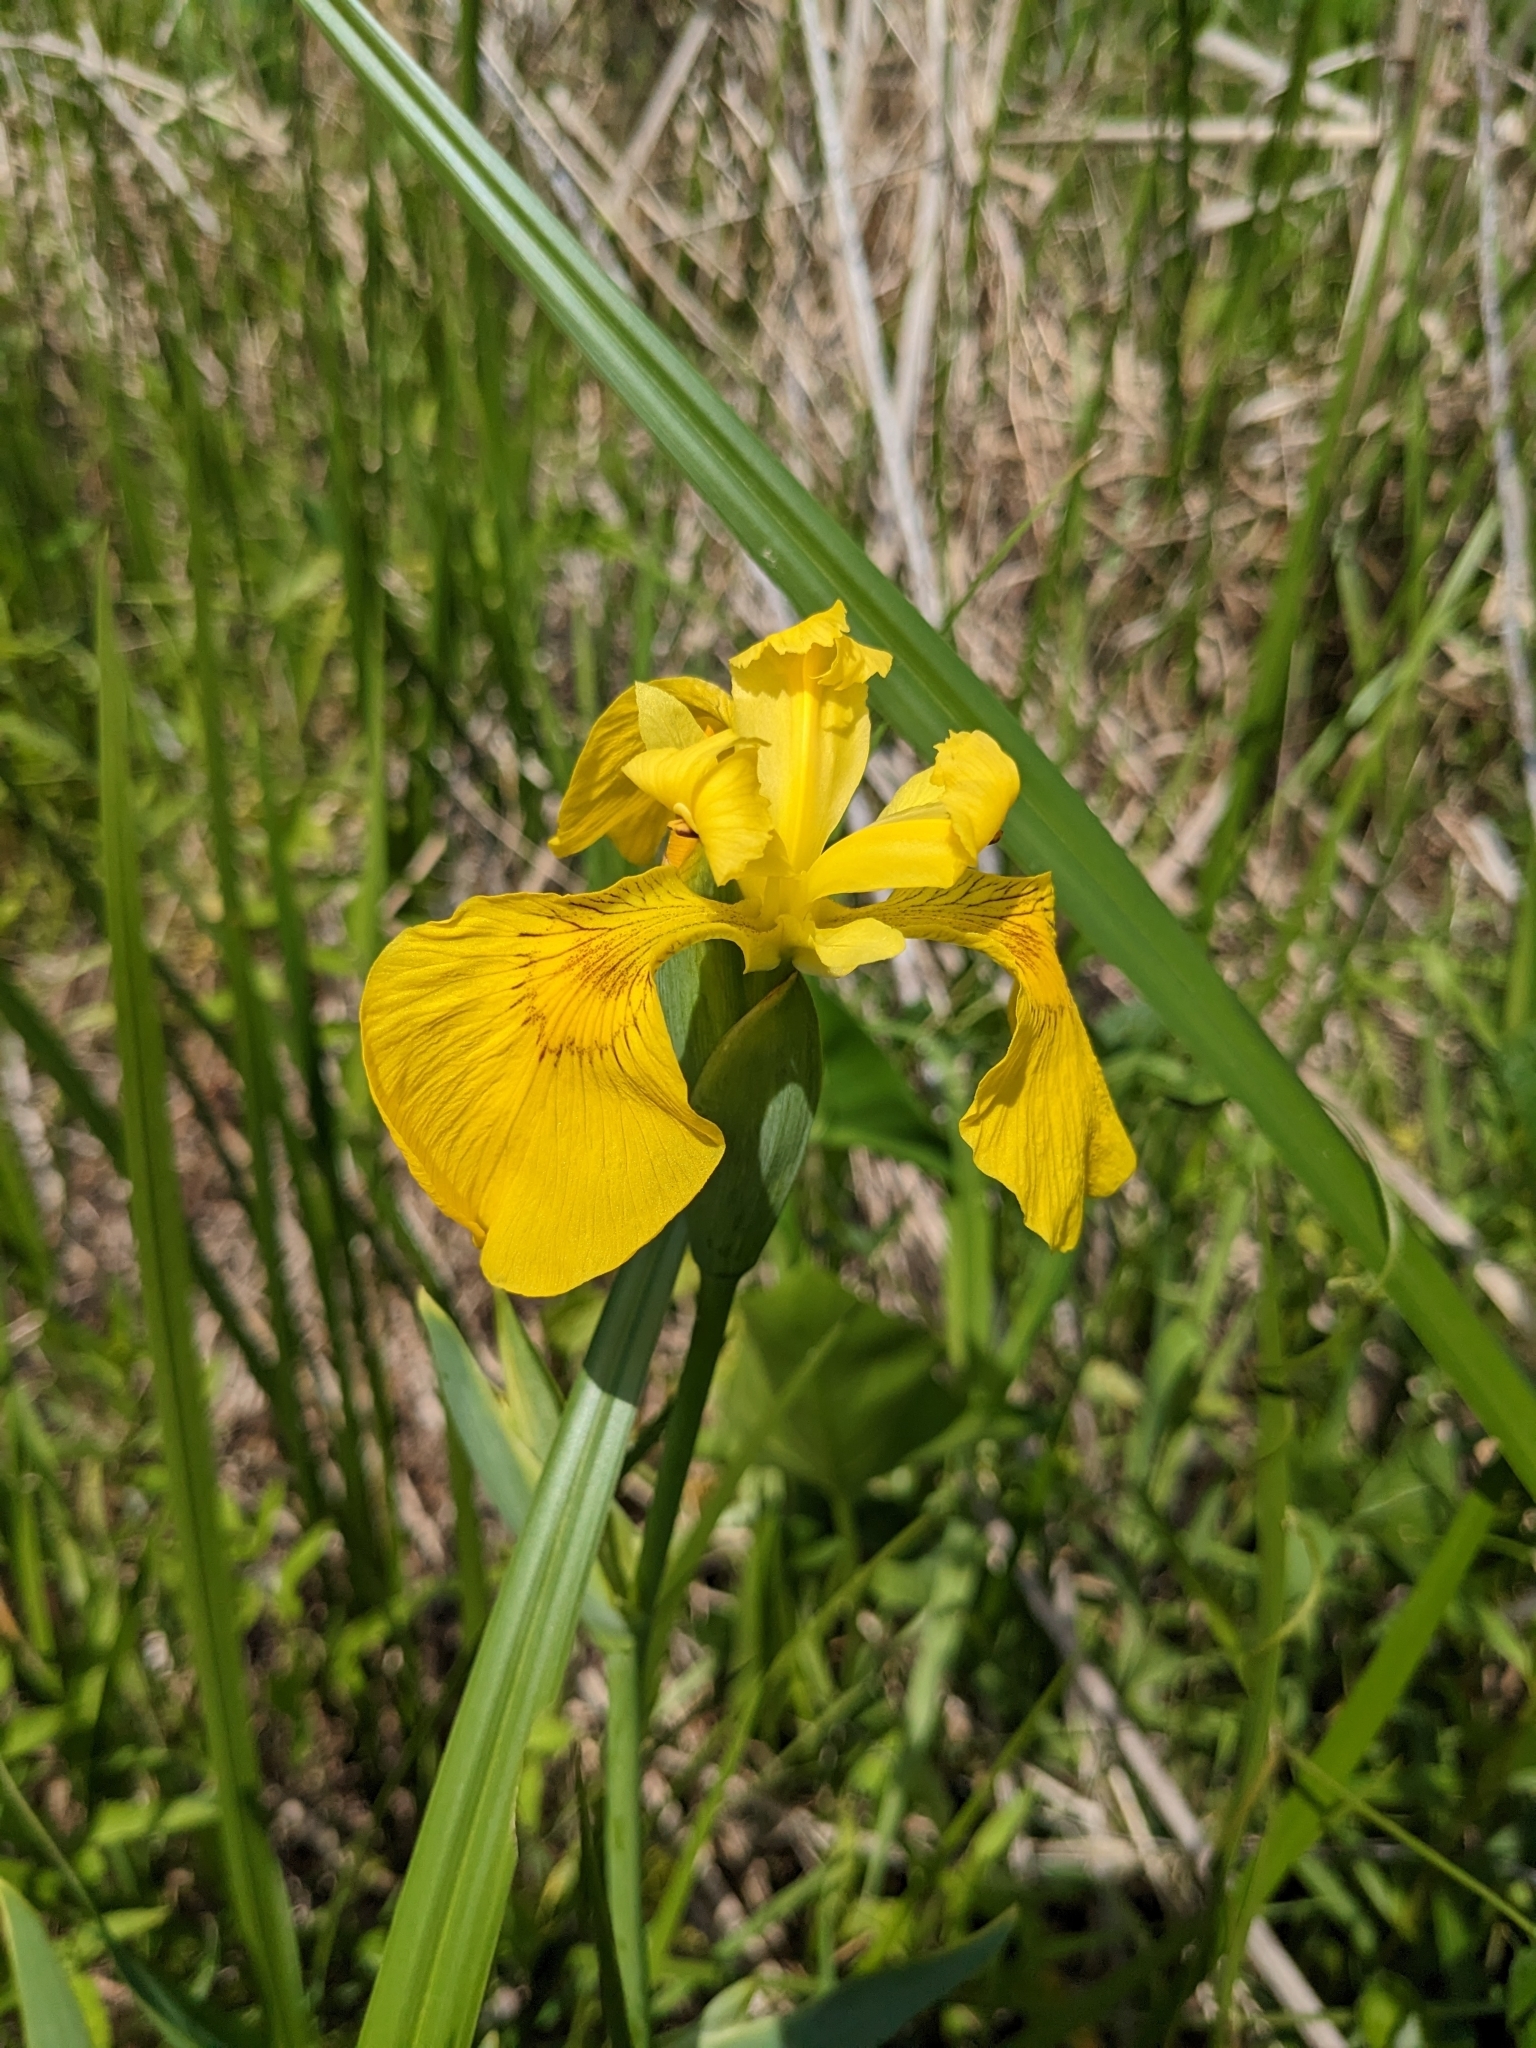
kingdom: Plantae
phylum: Tracheophyta
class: Liliopsida
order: Asparagales
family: Iridaceae
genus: Iris
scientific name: Iris pseudacorus
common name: Yellow flag
